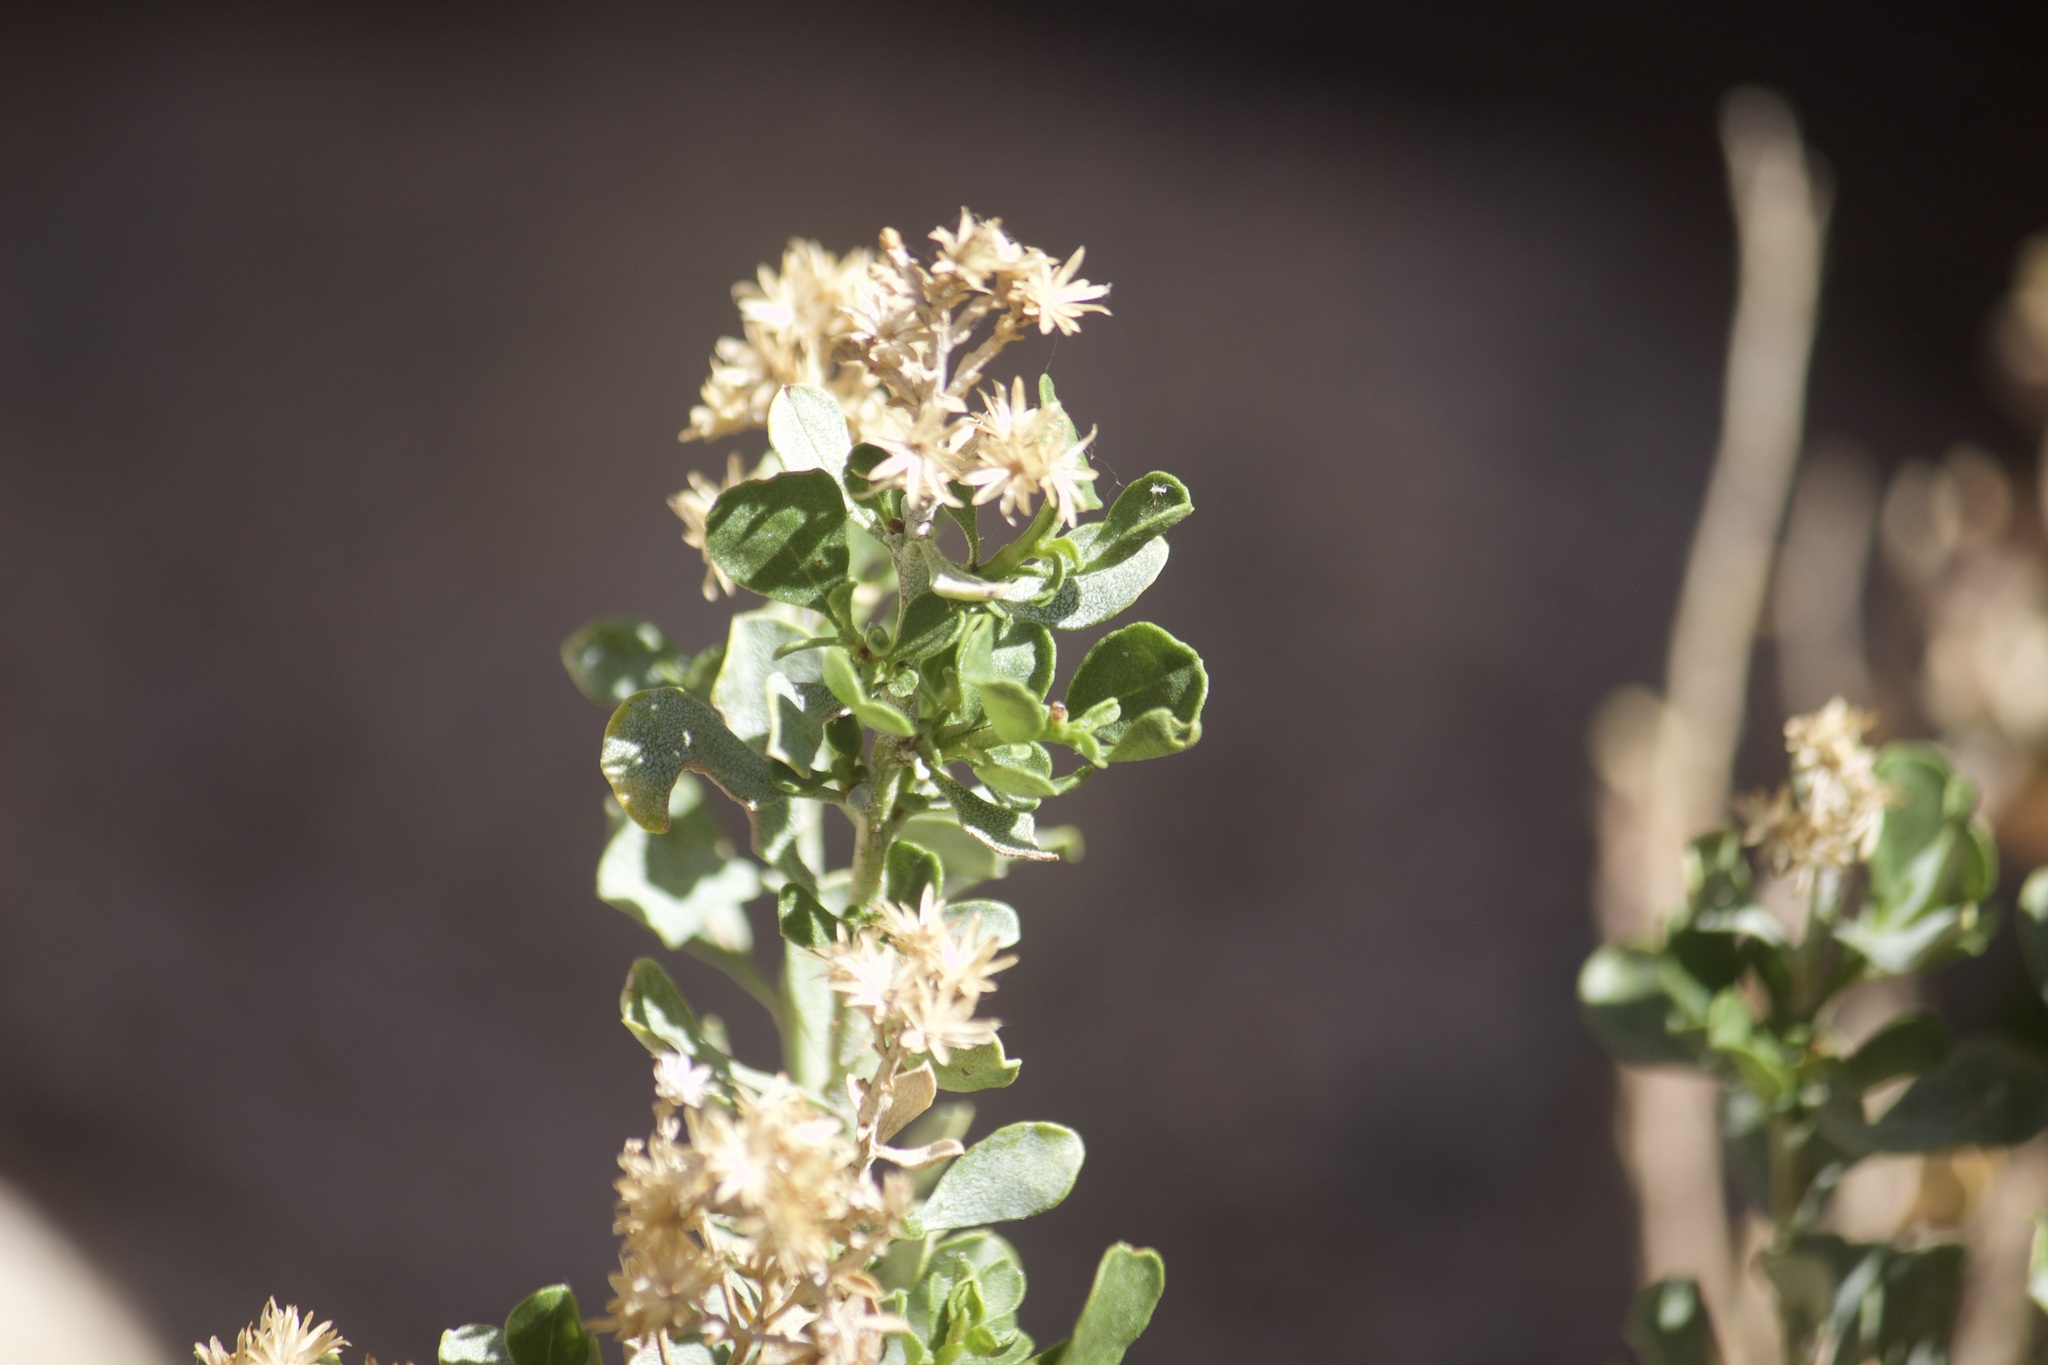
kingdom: Plantae
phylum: Tracheophyta
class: Magnoliopsida
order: Asterales
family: Asteraceae
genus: Ericameria
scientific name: Ericameria cuneata
